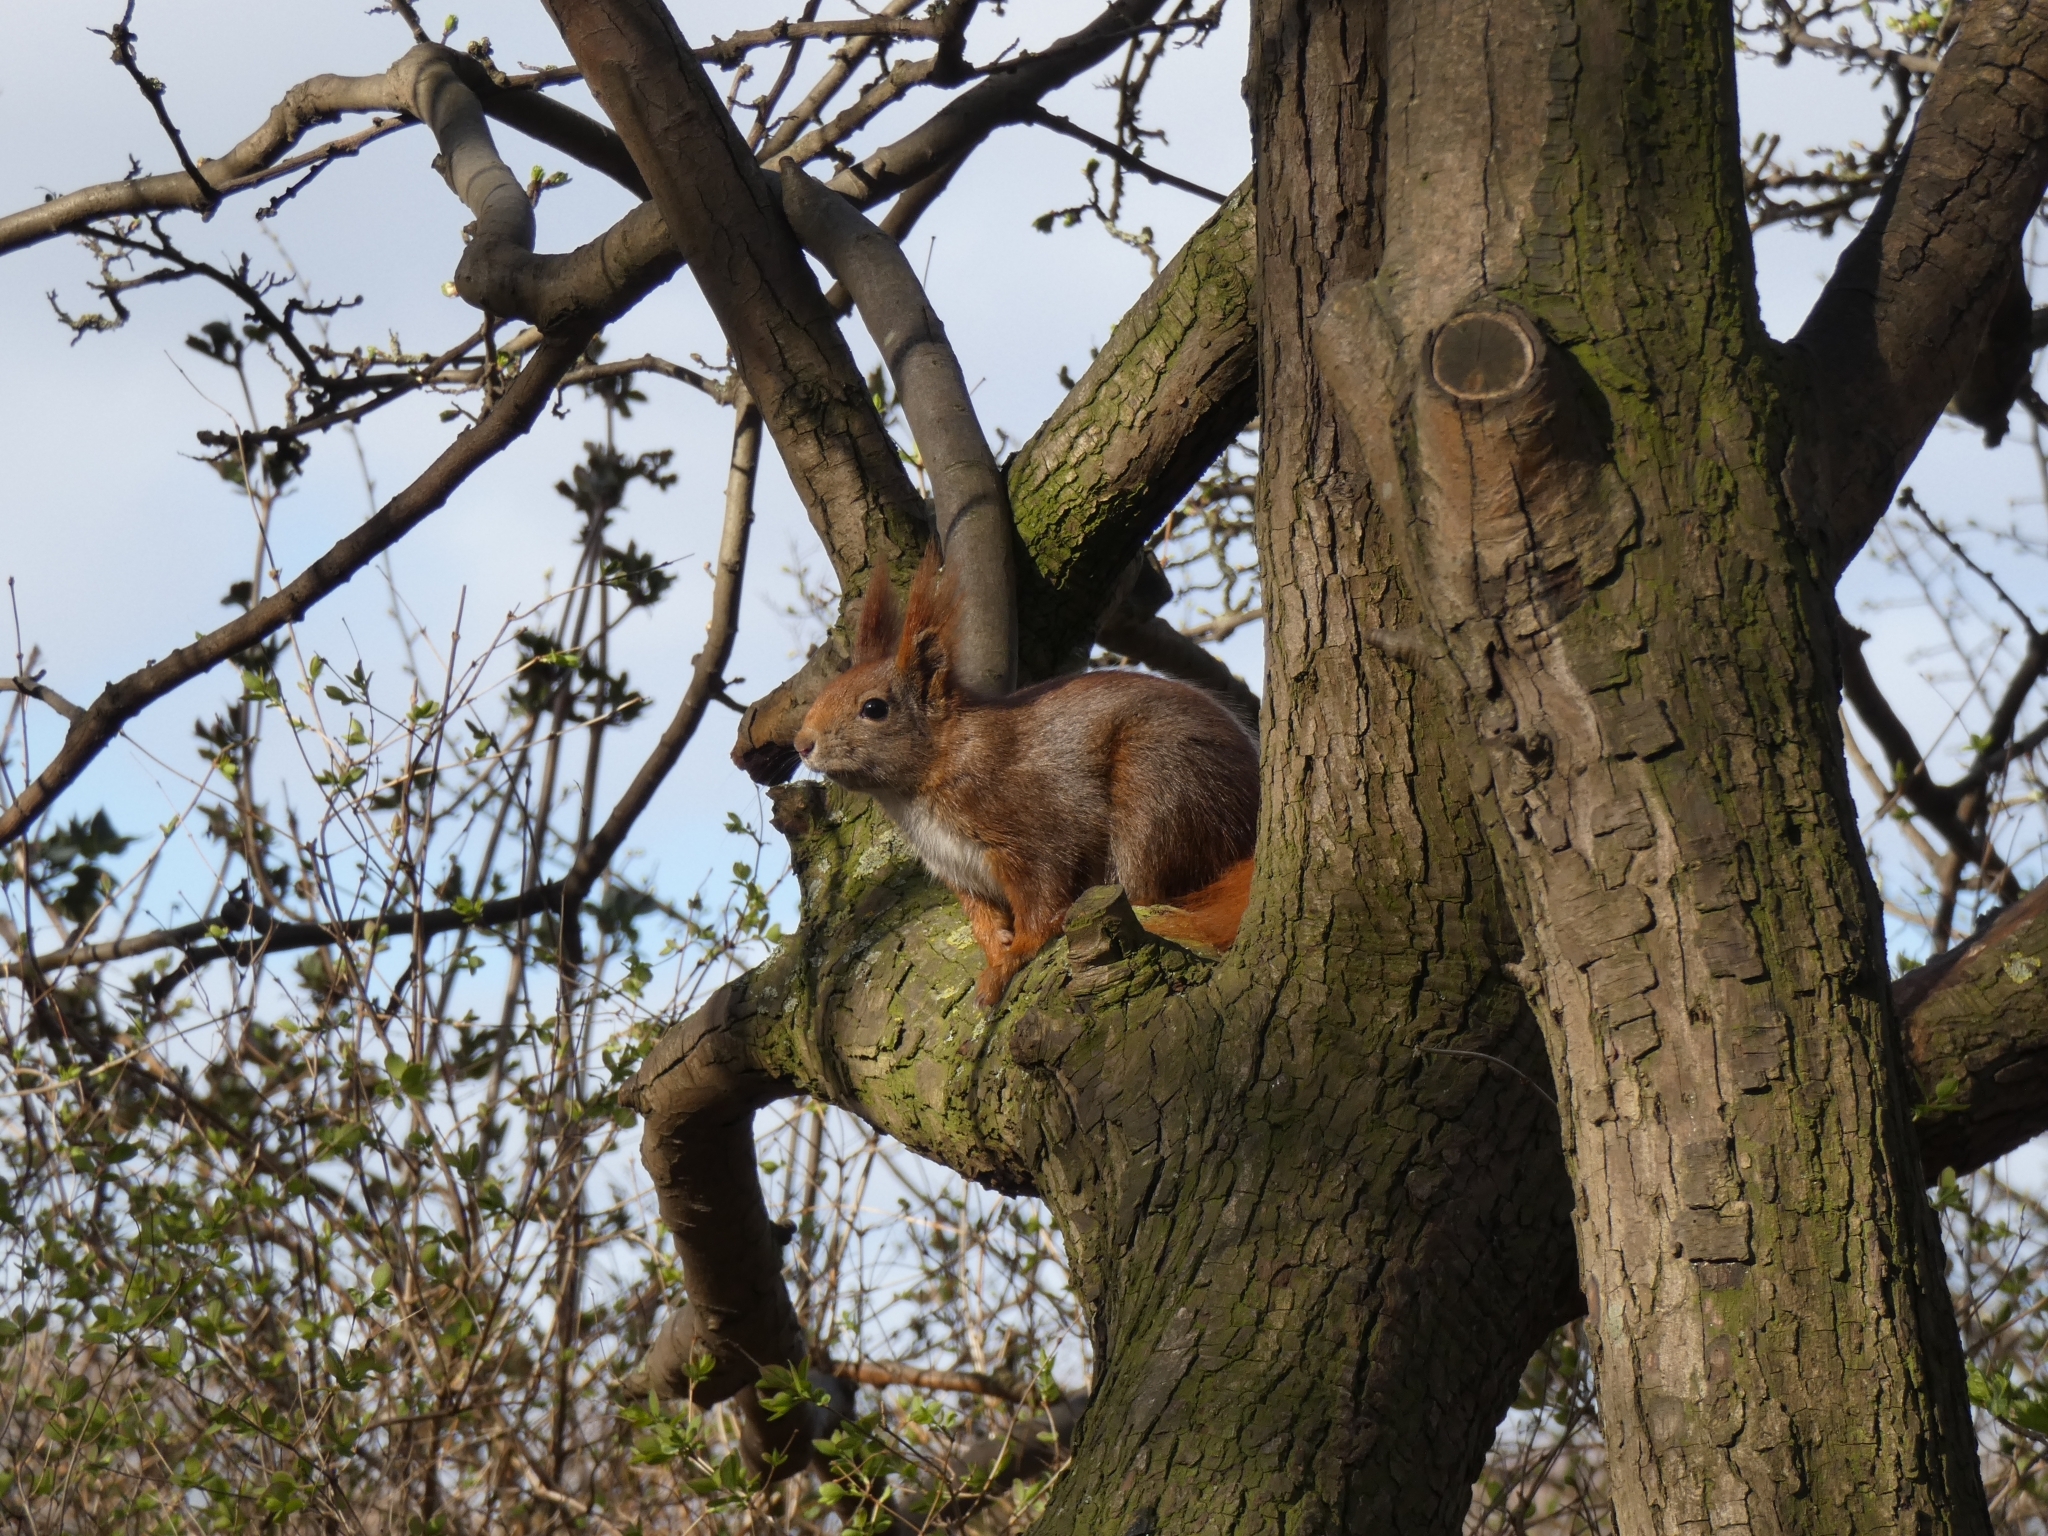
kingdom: Animalia
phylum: Chordata
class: Mammalia
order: Rodentia
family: Sciuridae
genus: Sciurus
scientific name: Sciurus vulgaris
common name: Eurasian red squirrel
